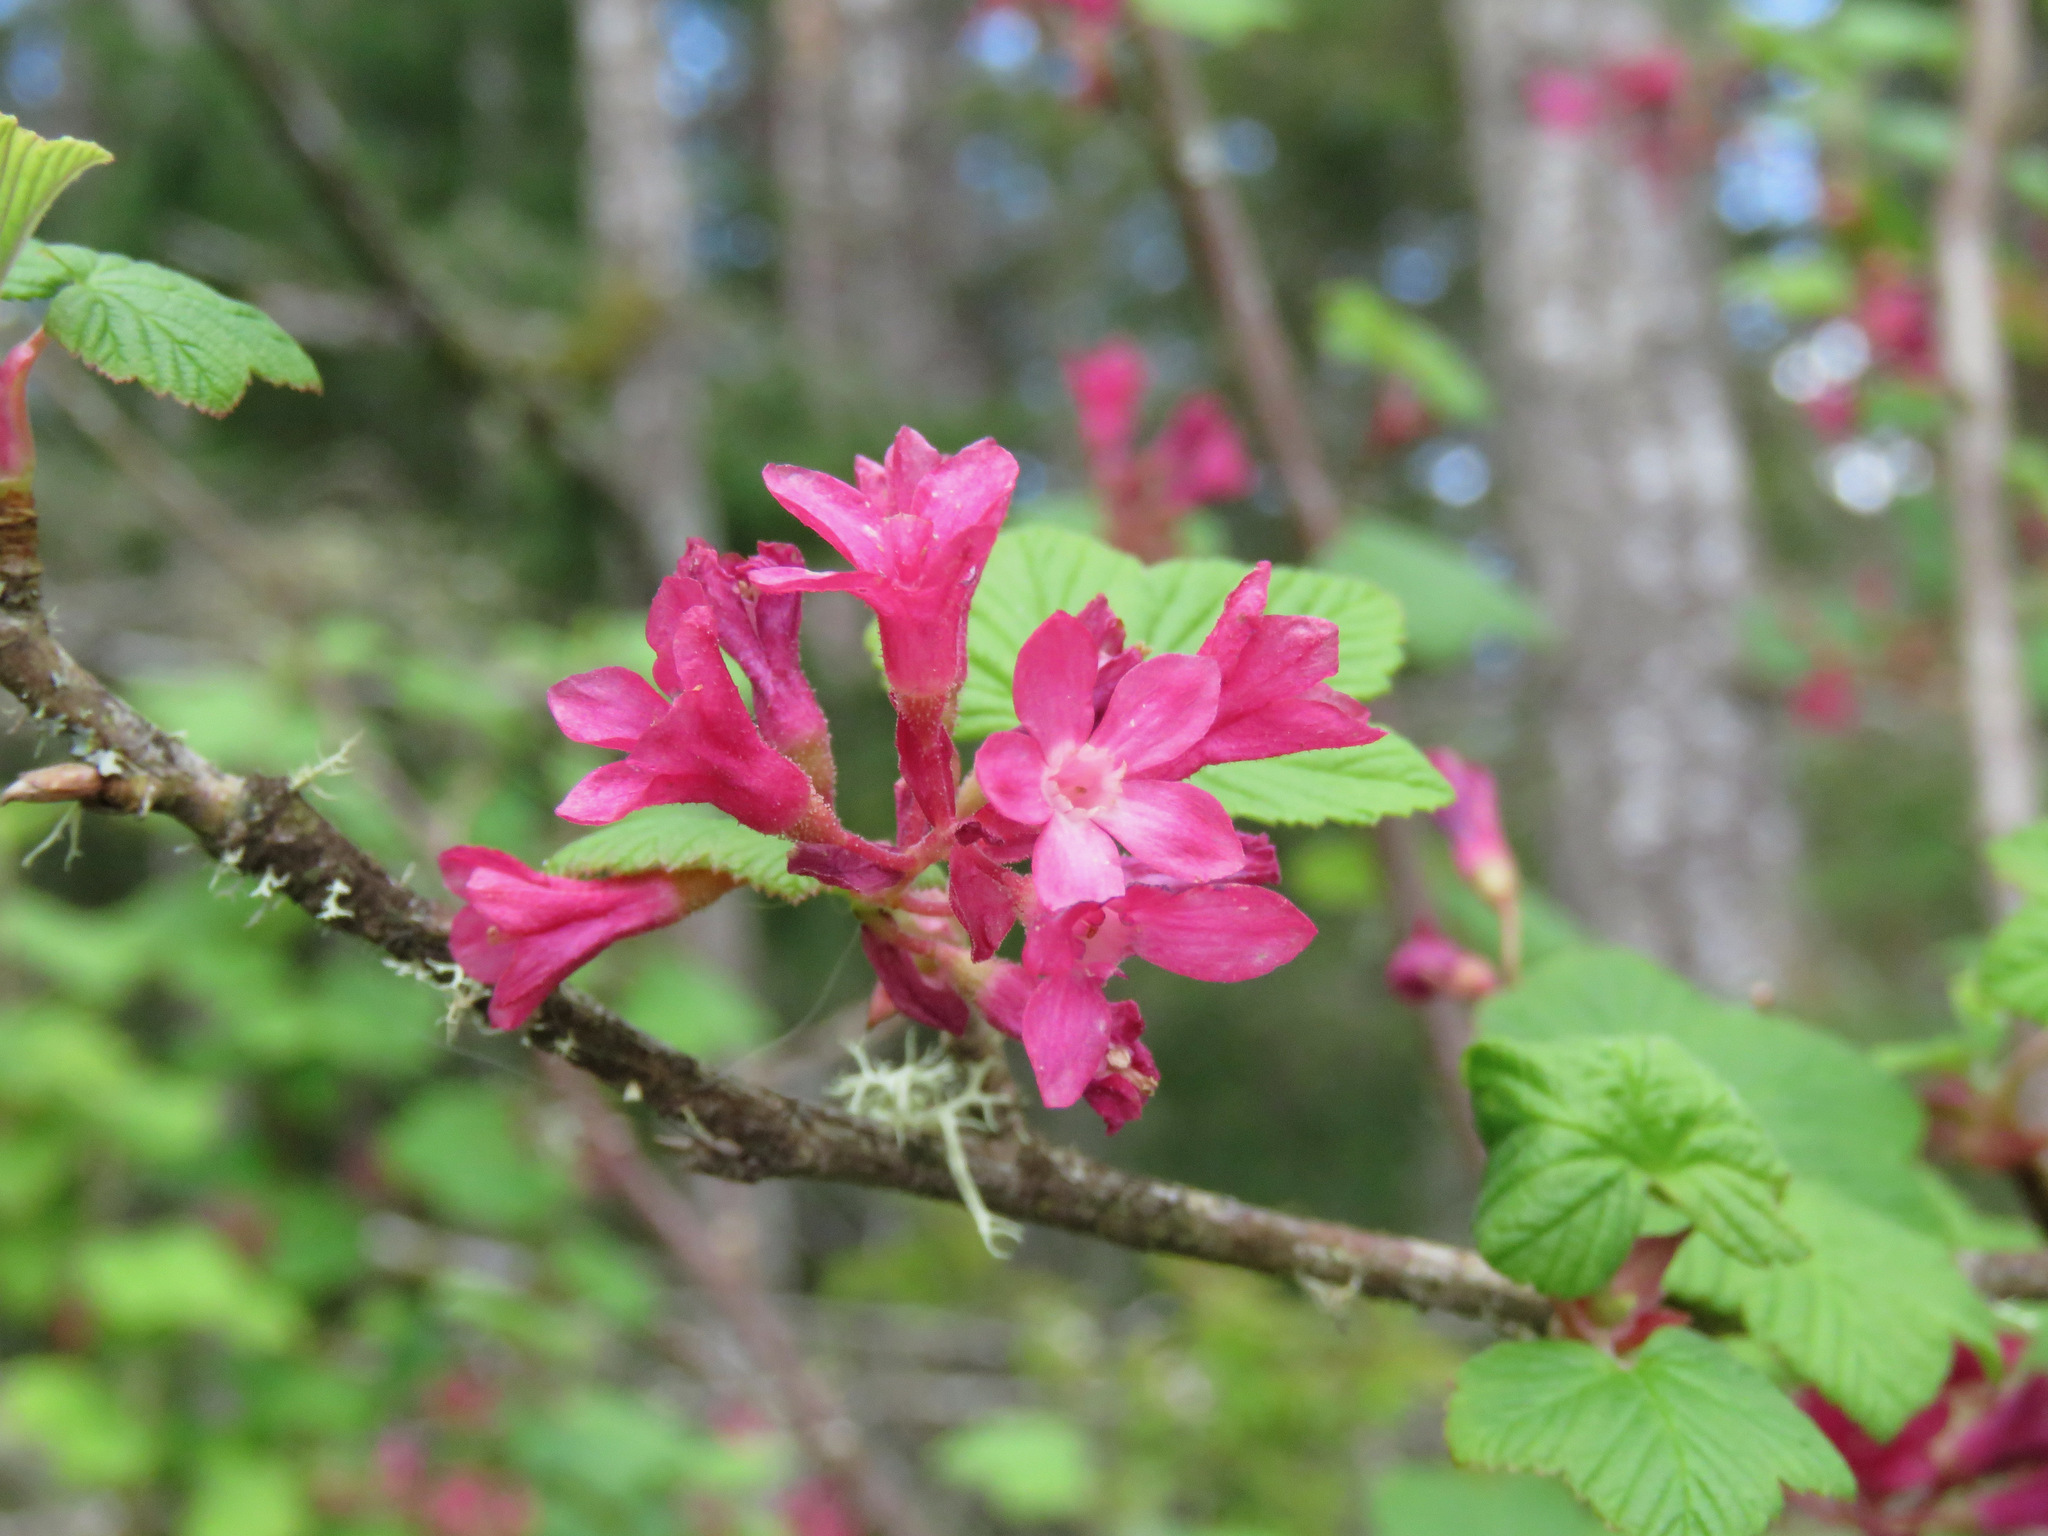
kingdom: Plantae
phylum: Tracheophyta
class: Magnoliopsida
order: Saxifragales
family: Grossulariaceae
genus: Ribes
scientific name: Ribes sanguineum
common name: Flowering currant
